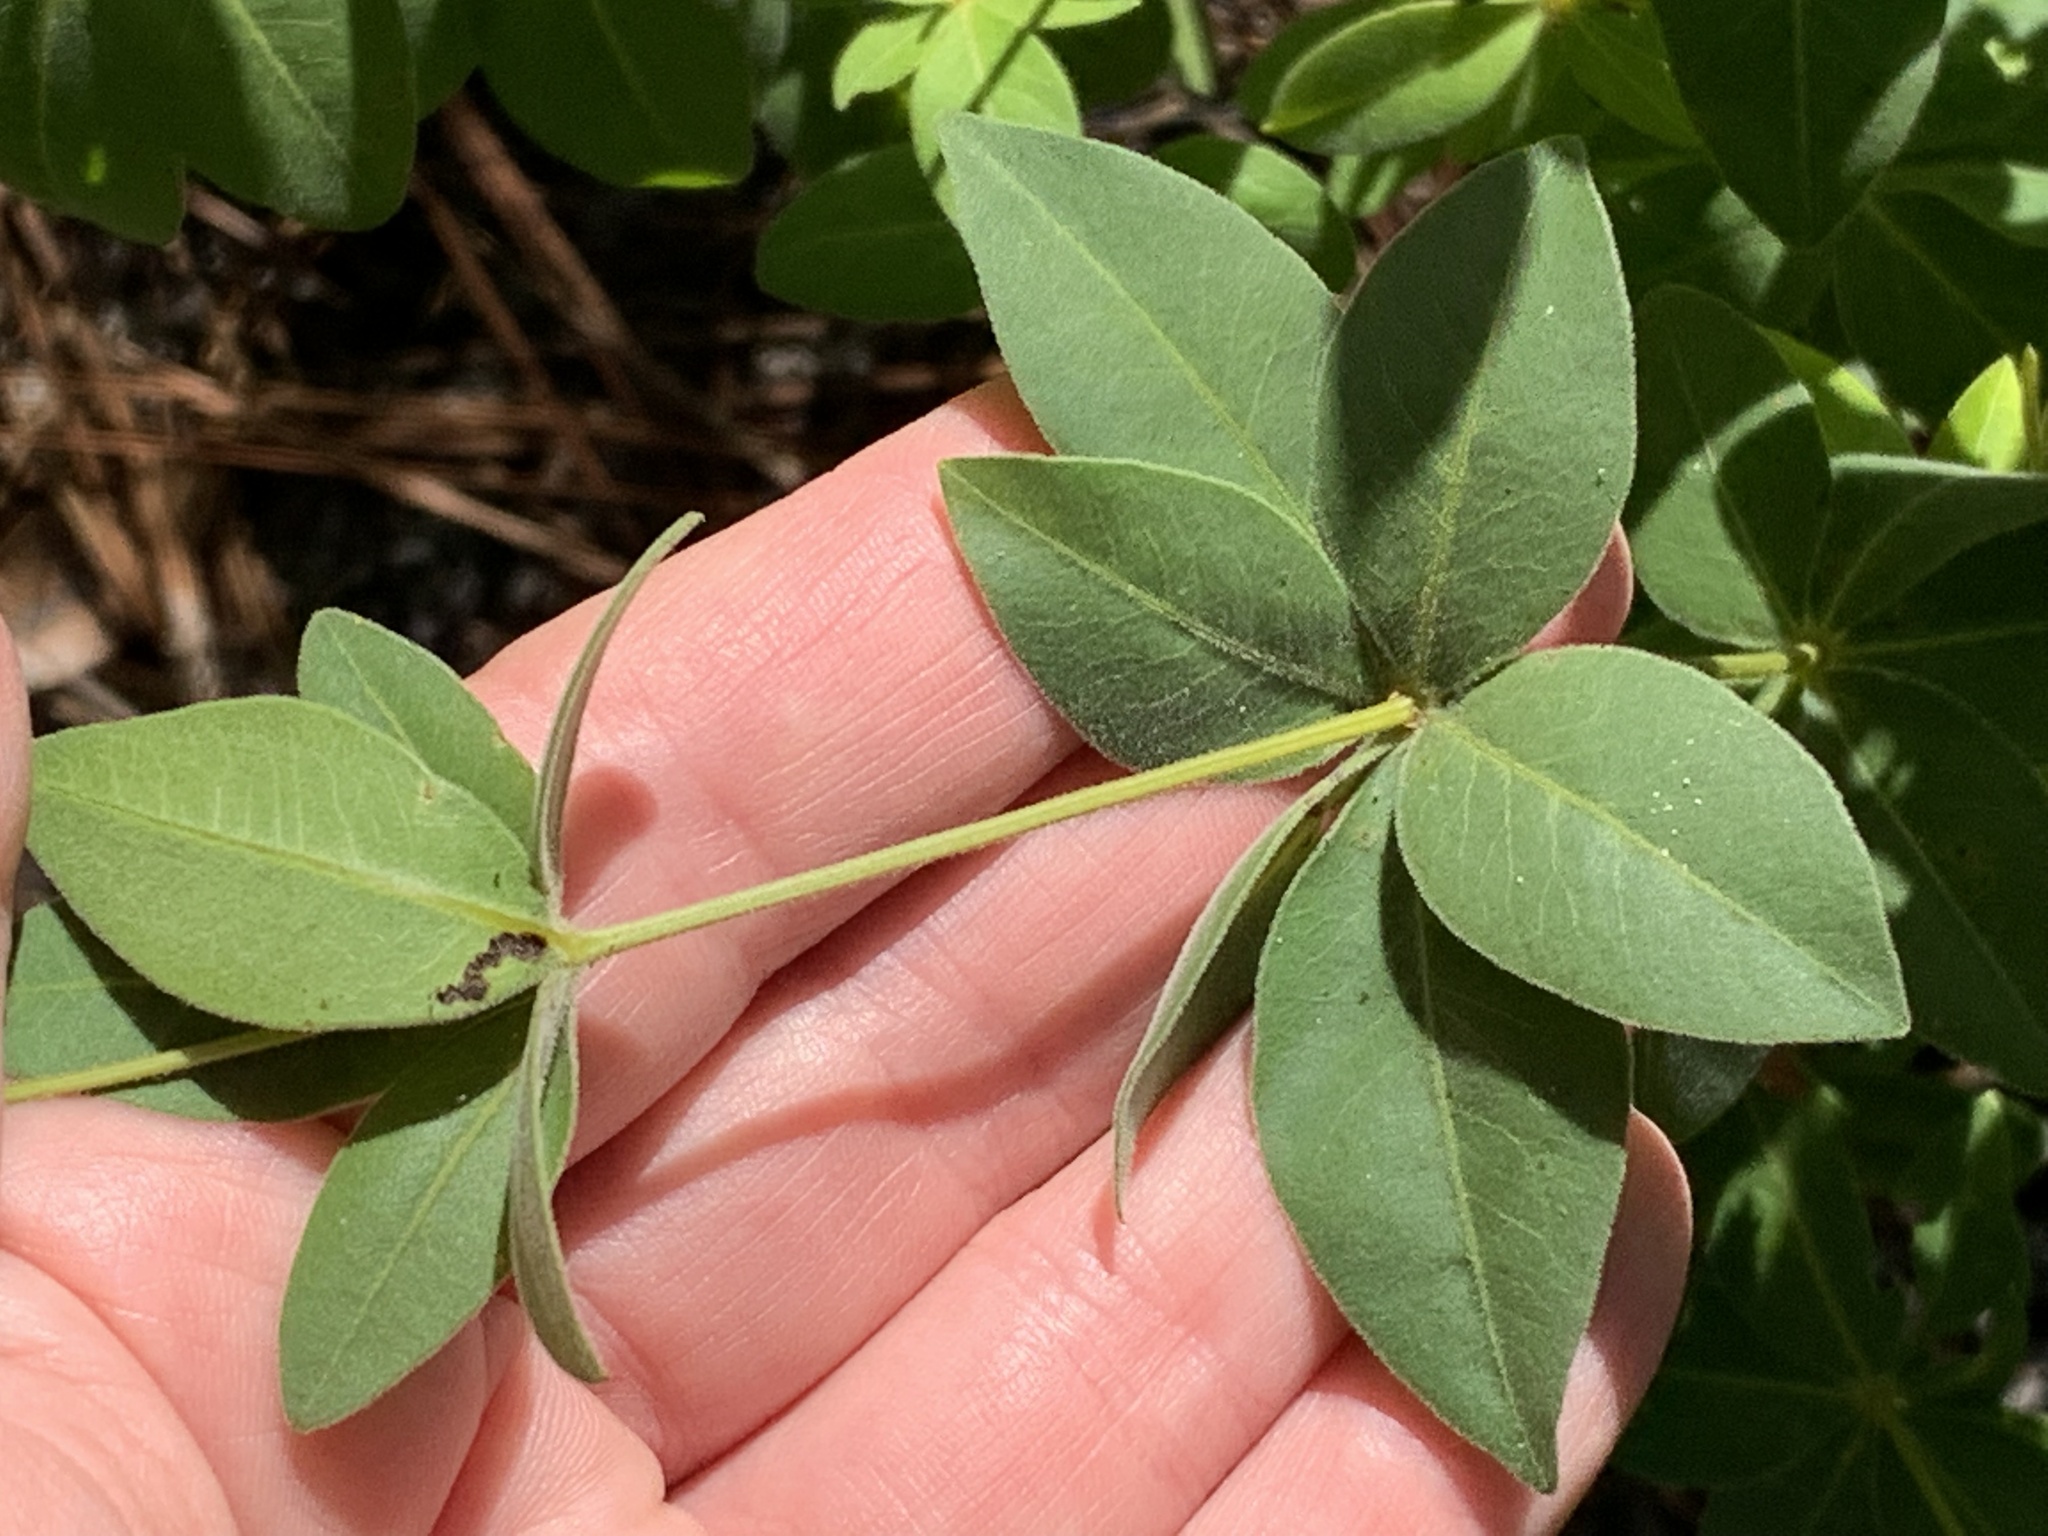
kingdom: Plantae
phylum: Tracheophyta
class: Magnoliopsida
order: Asterales
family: Asteraceae
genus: Coreopsis
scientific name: Coreopsis major
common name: Forest tickseed
